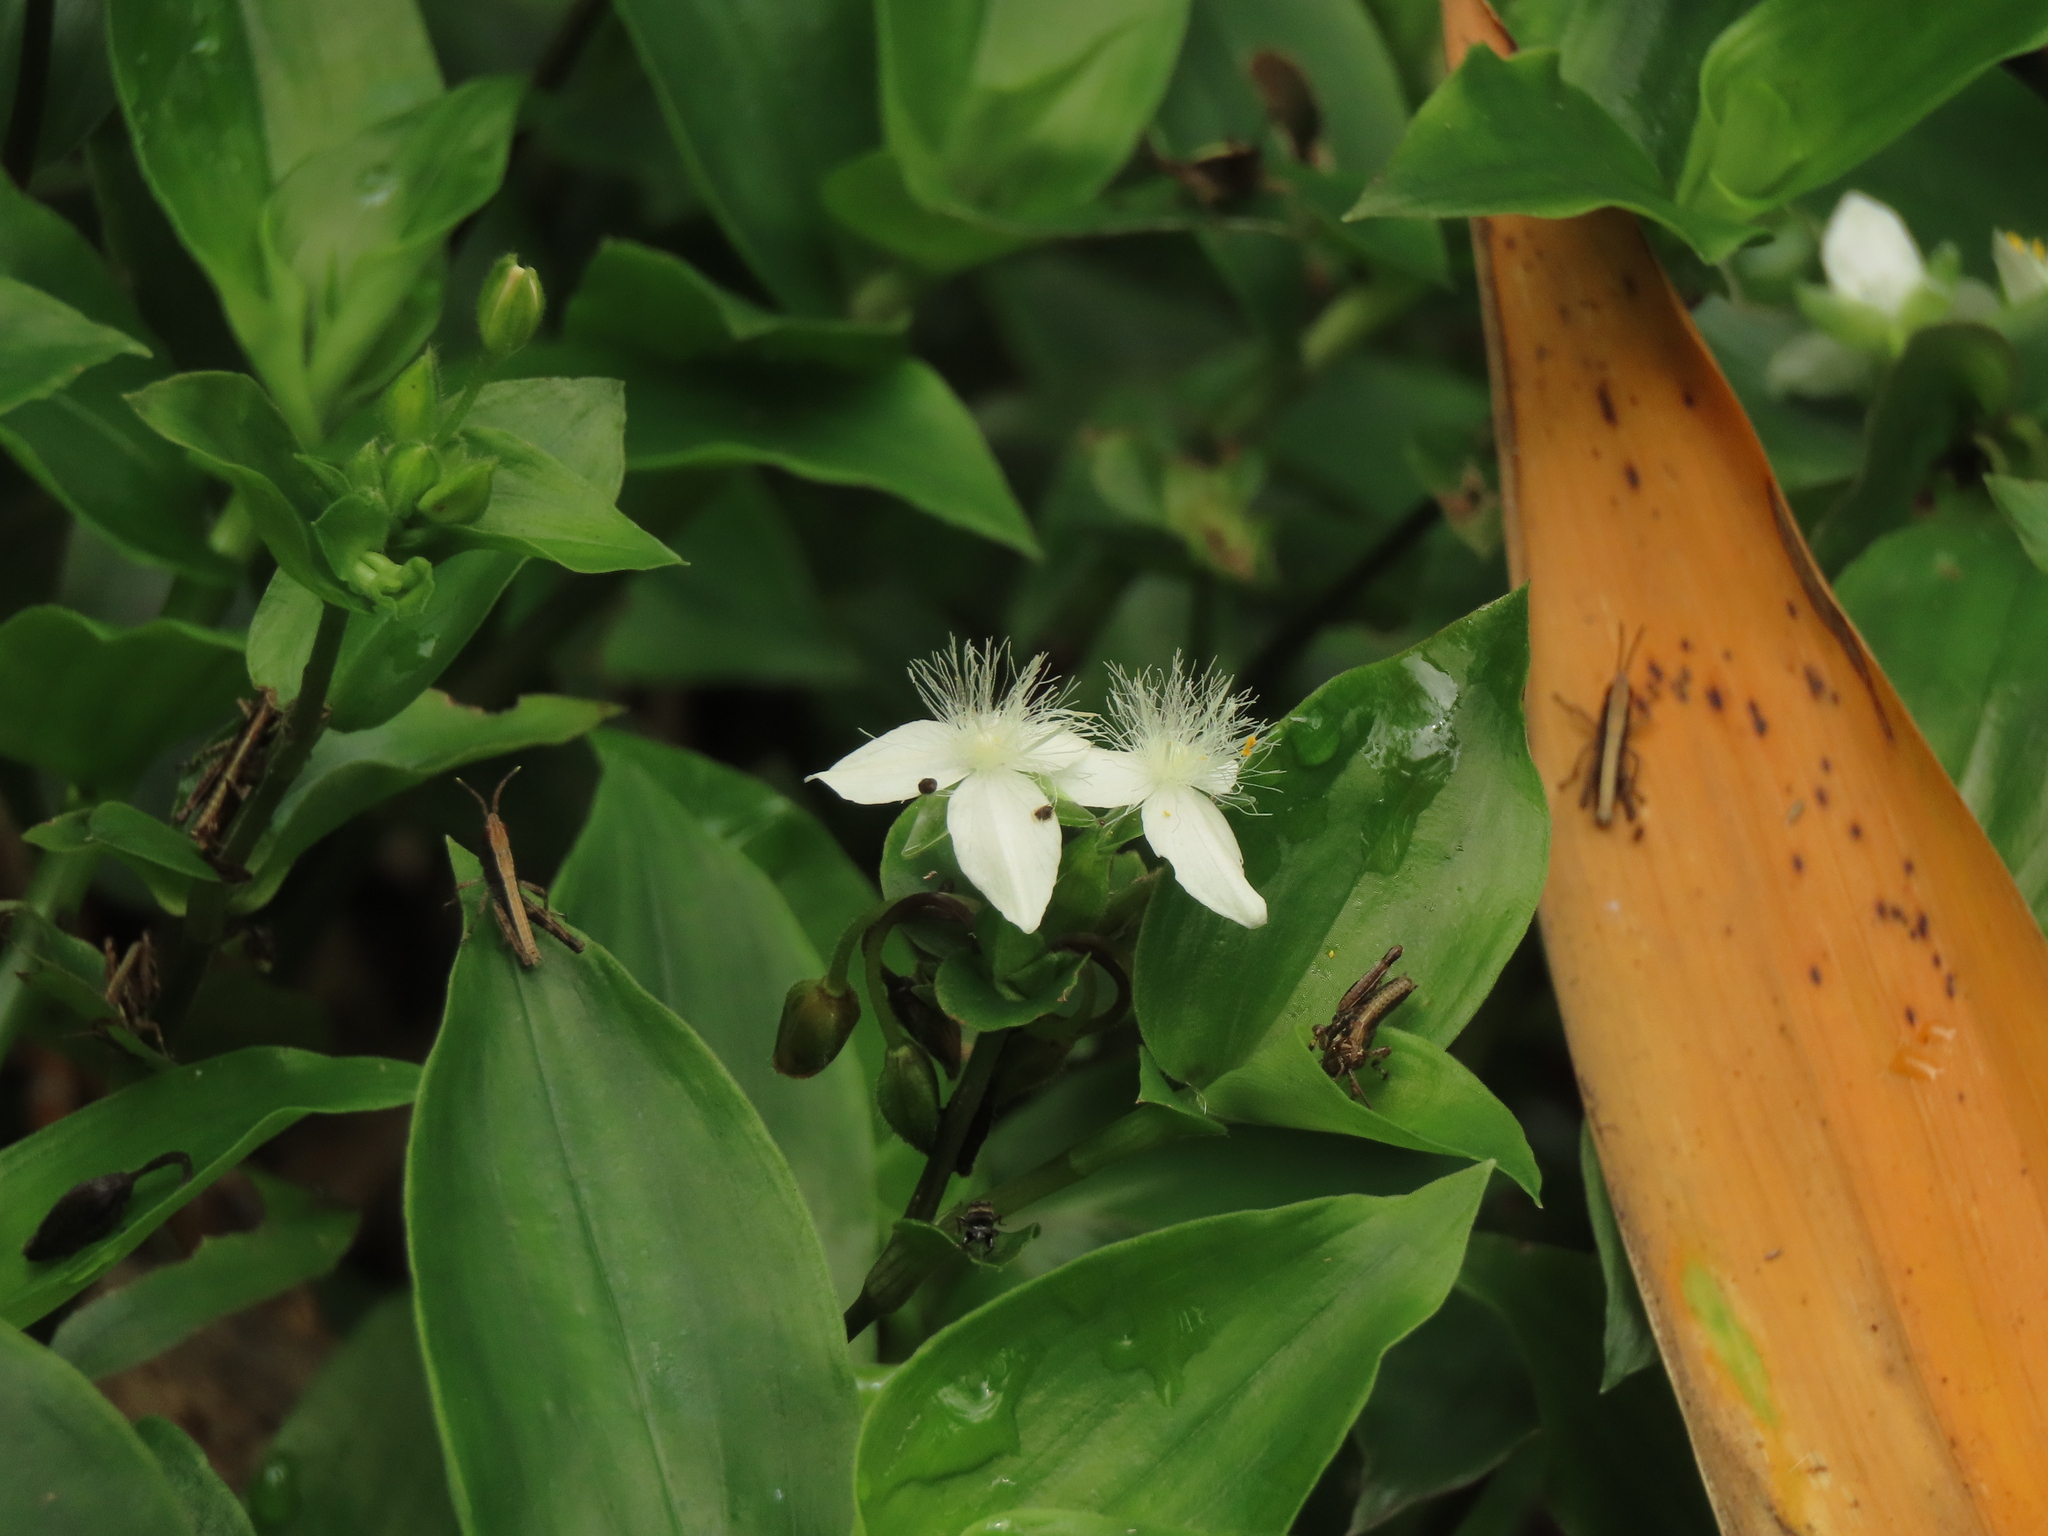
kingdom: Plantae
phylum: Tracheophyta
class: Liliopsida
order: Commelinales
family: Commelinaceae
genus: Tradescantia
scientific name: Tradescantia fluminensis
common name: Wandering-jew
